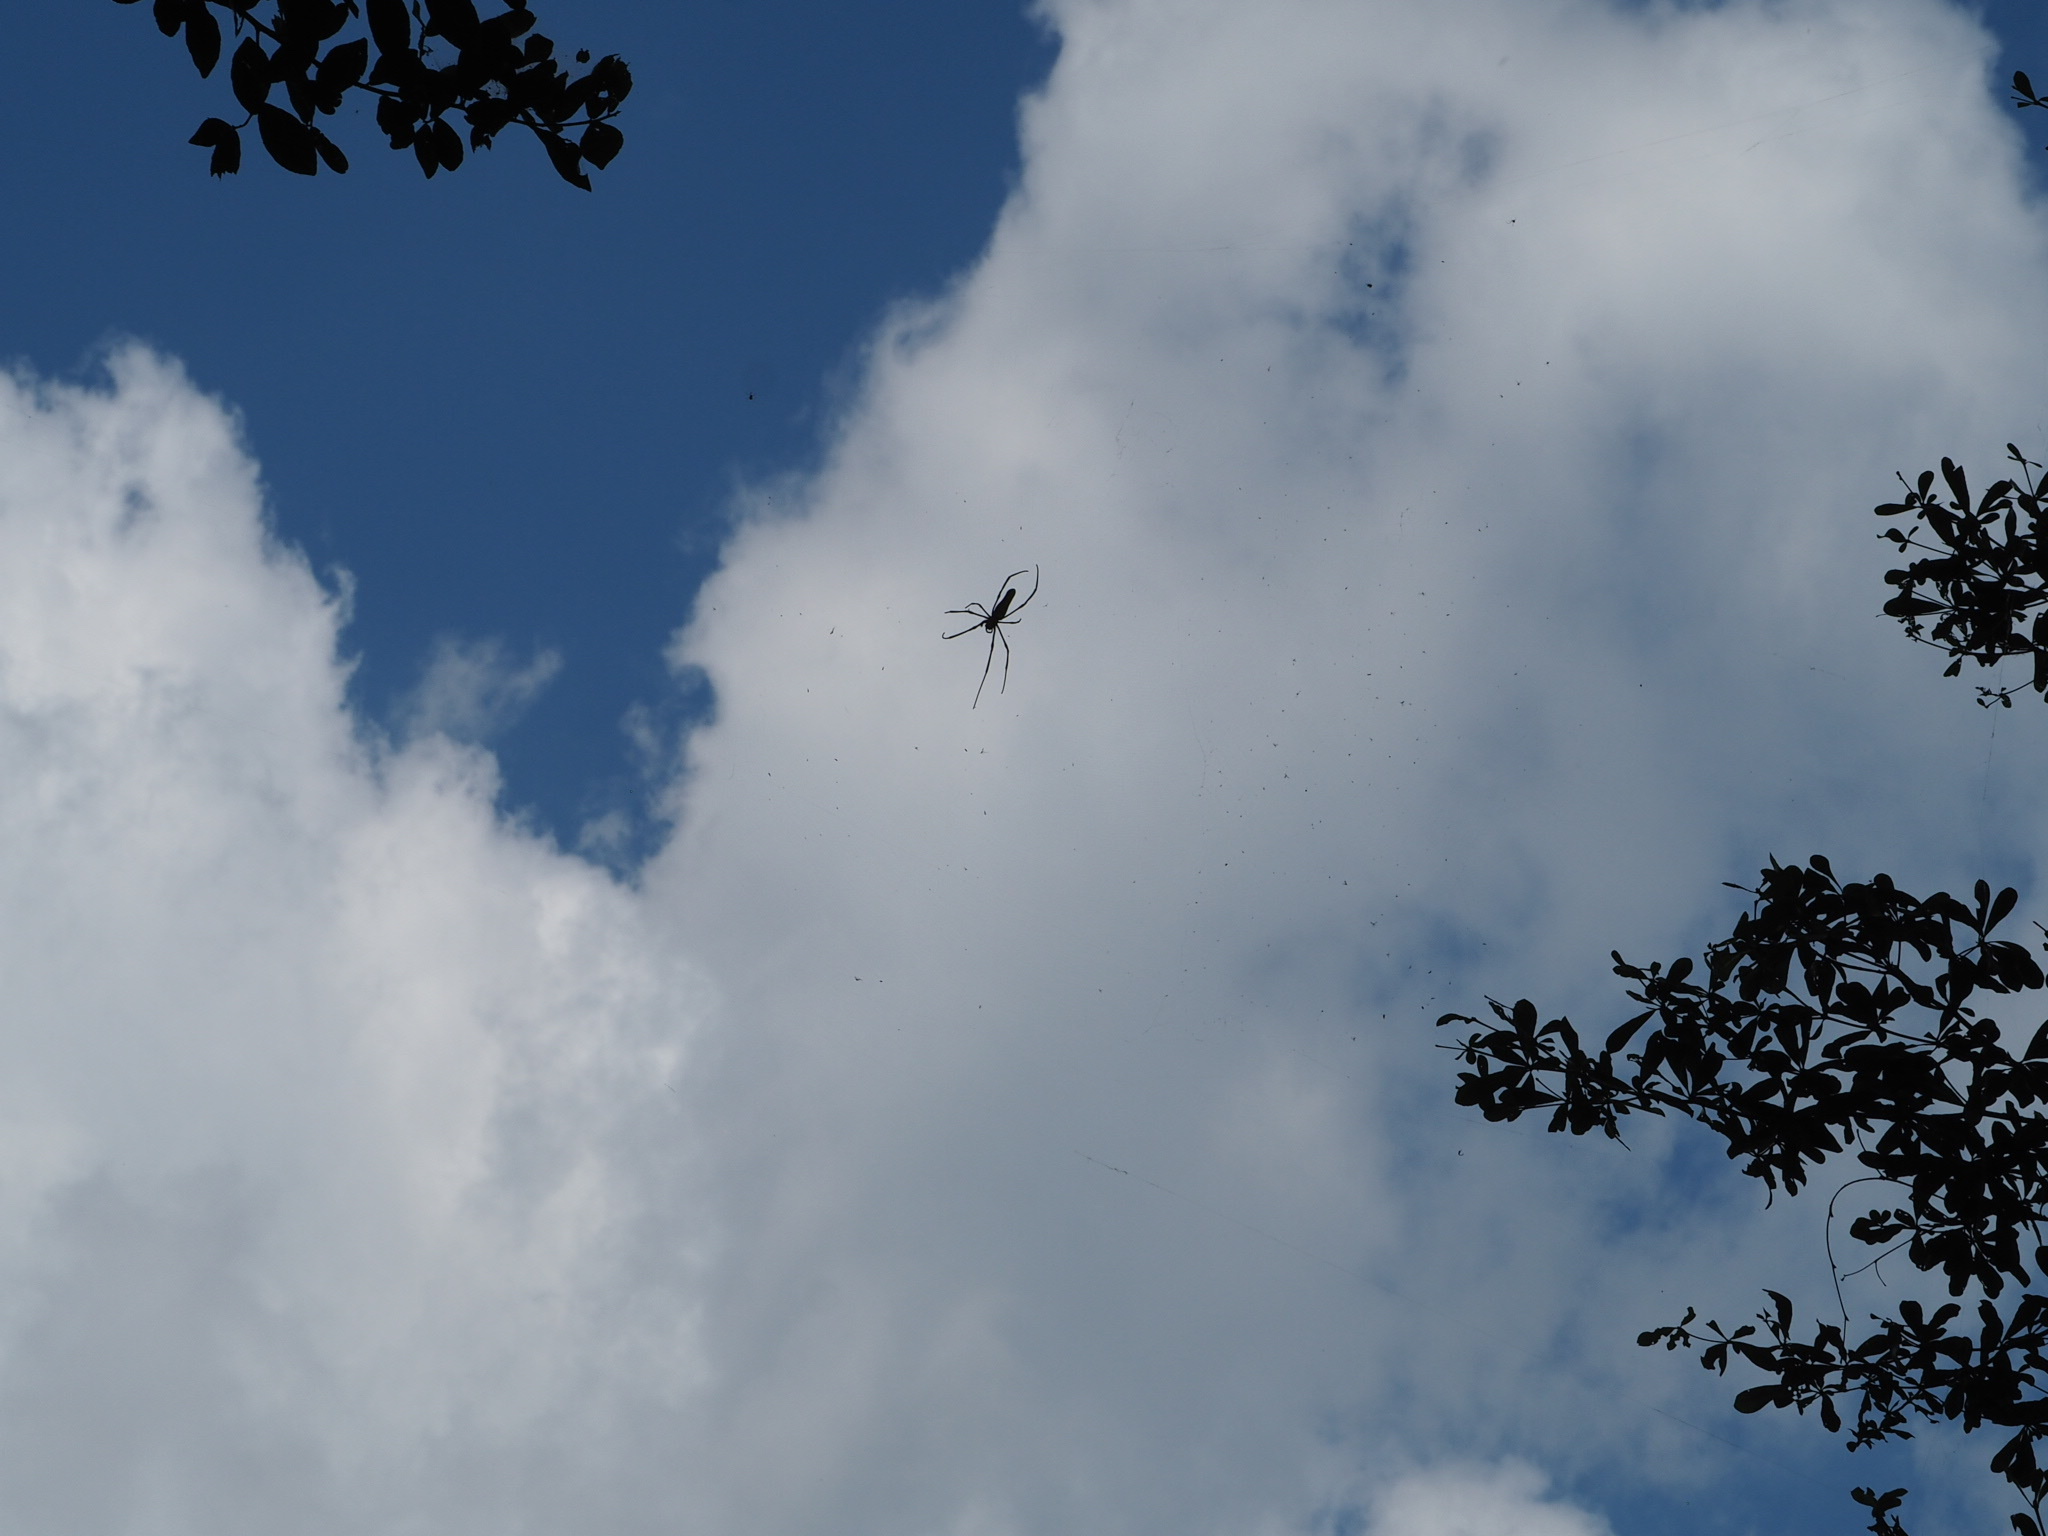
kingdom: Animalia
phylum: Arthropoda
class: Arachnida
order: Araneae
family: Araneidae
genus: Nephila
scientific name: Nephila pilipes
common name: Giant golden orb weaver
